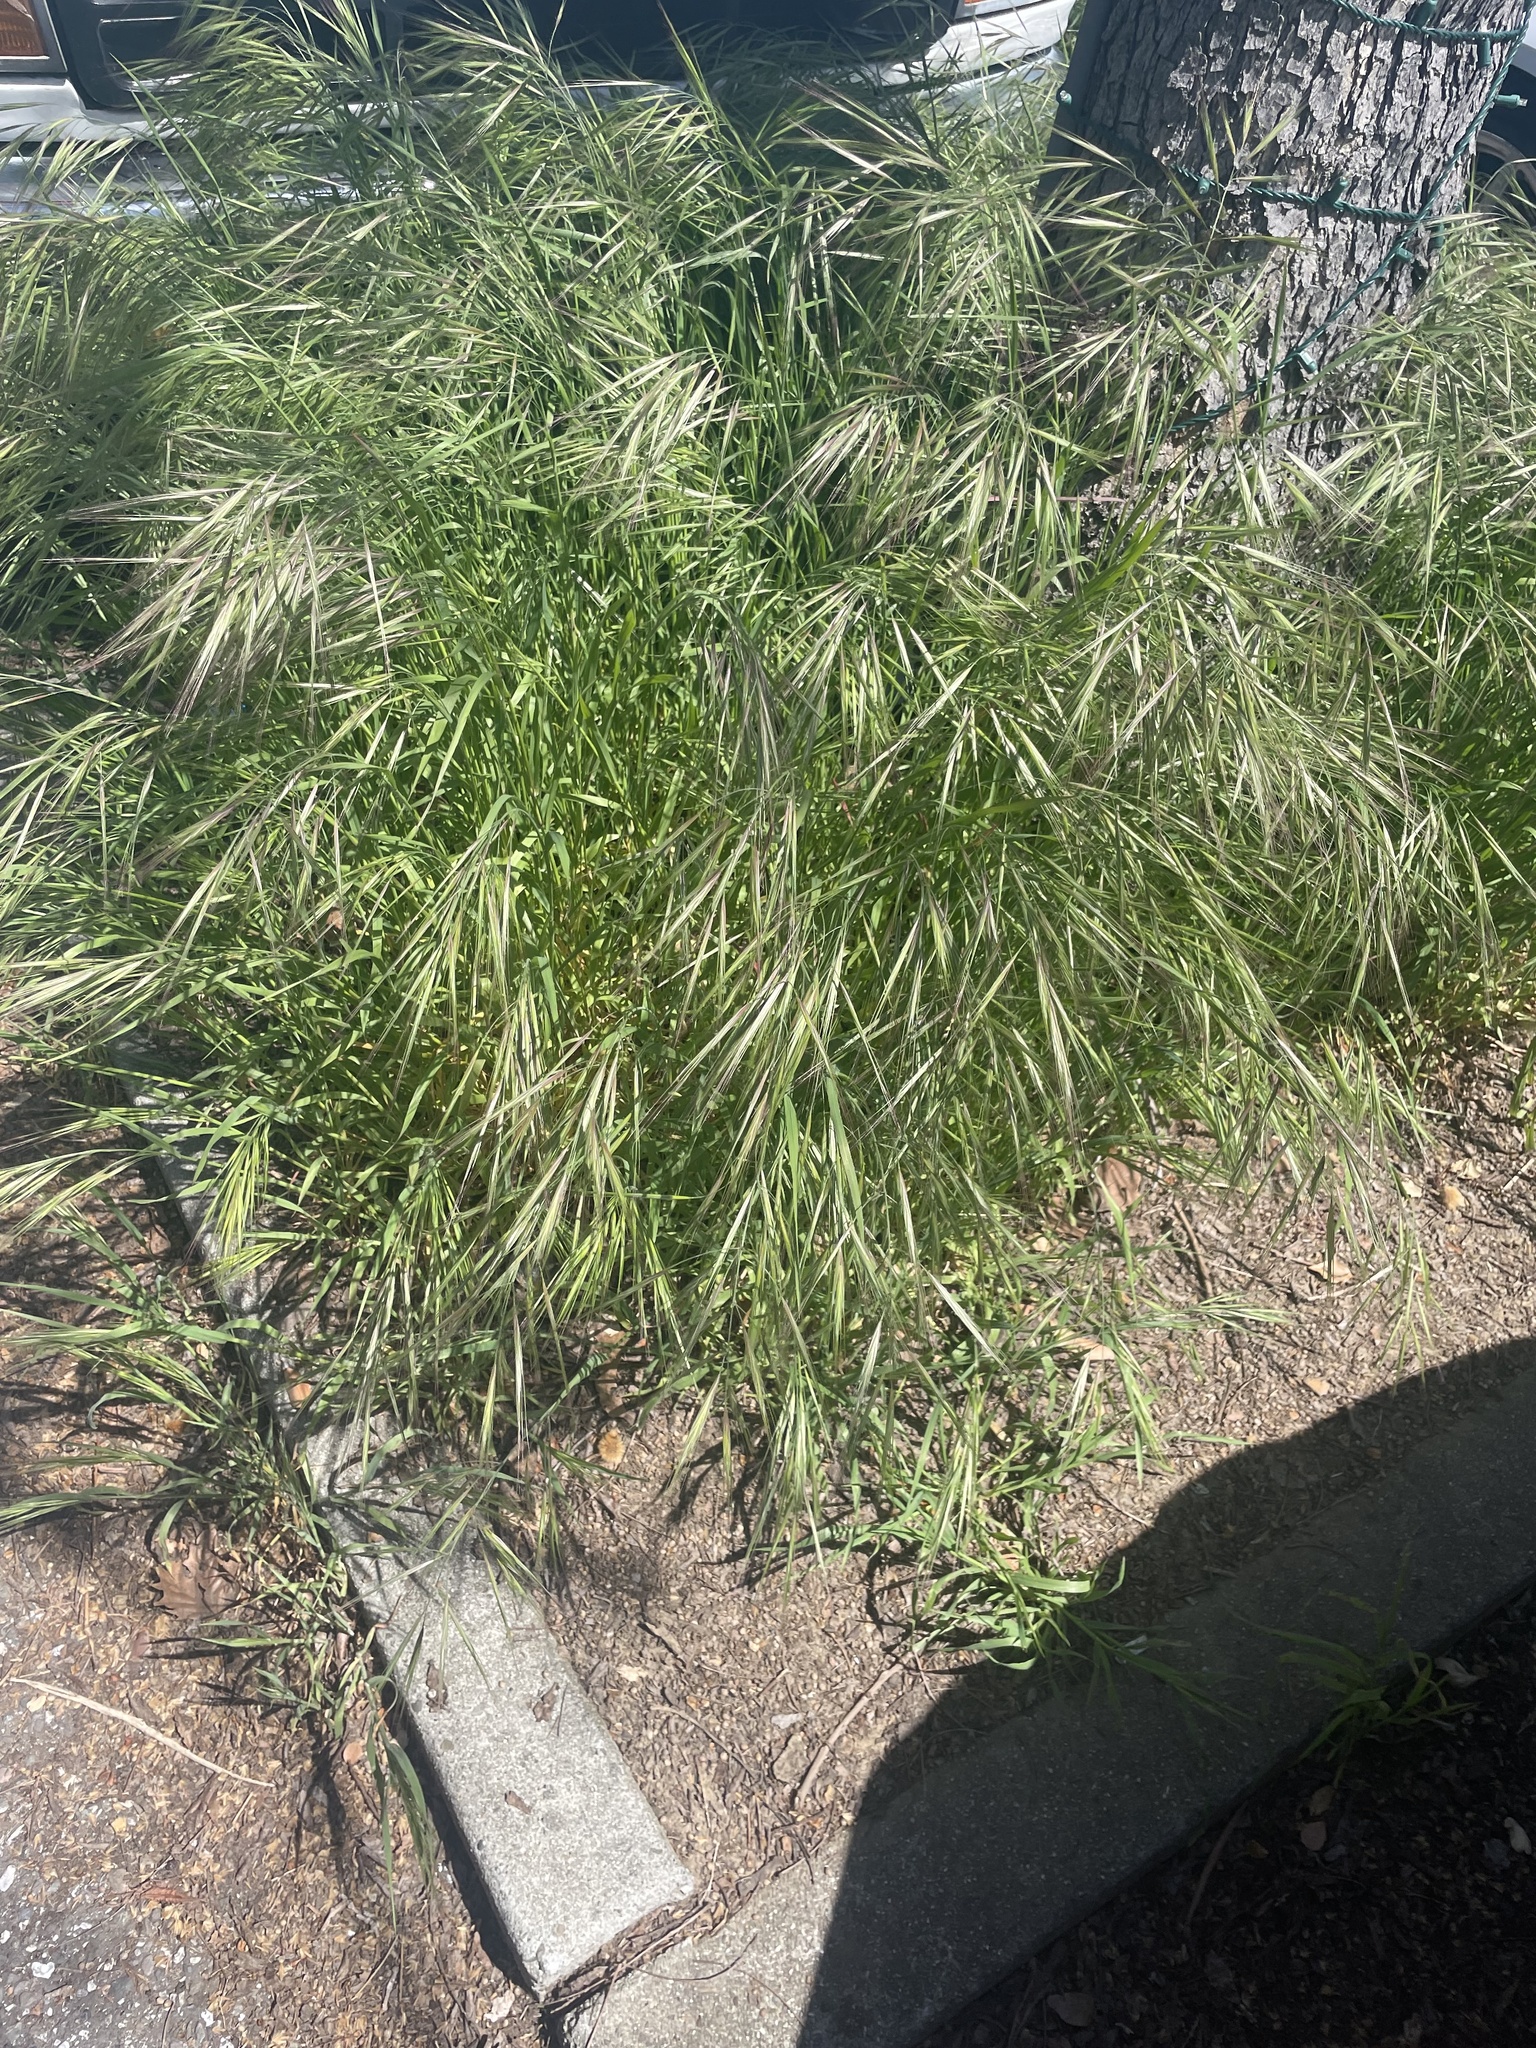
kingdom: Plantae
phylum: Tracheophyta
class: Liliopsida
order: Poales
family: Poaceae
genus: Bromus
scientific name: Bromus diandrus
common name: Ripgut brome
